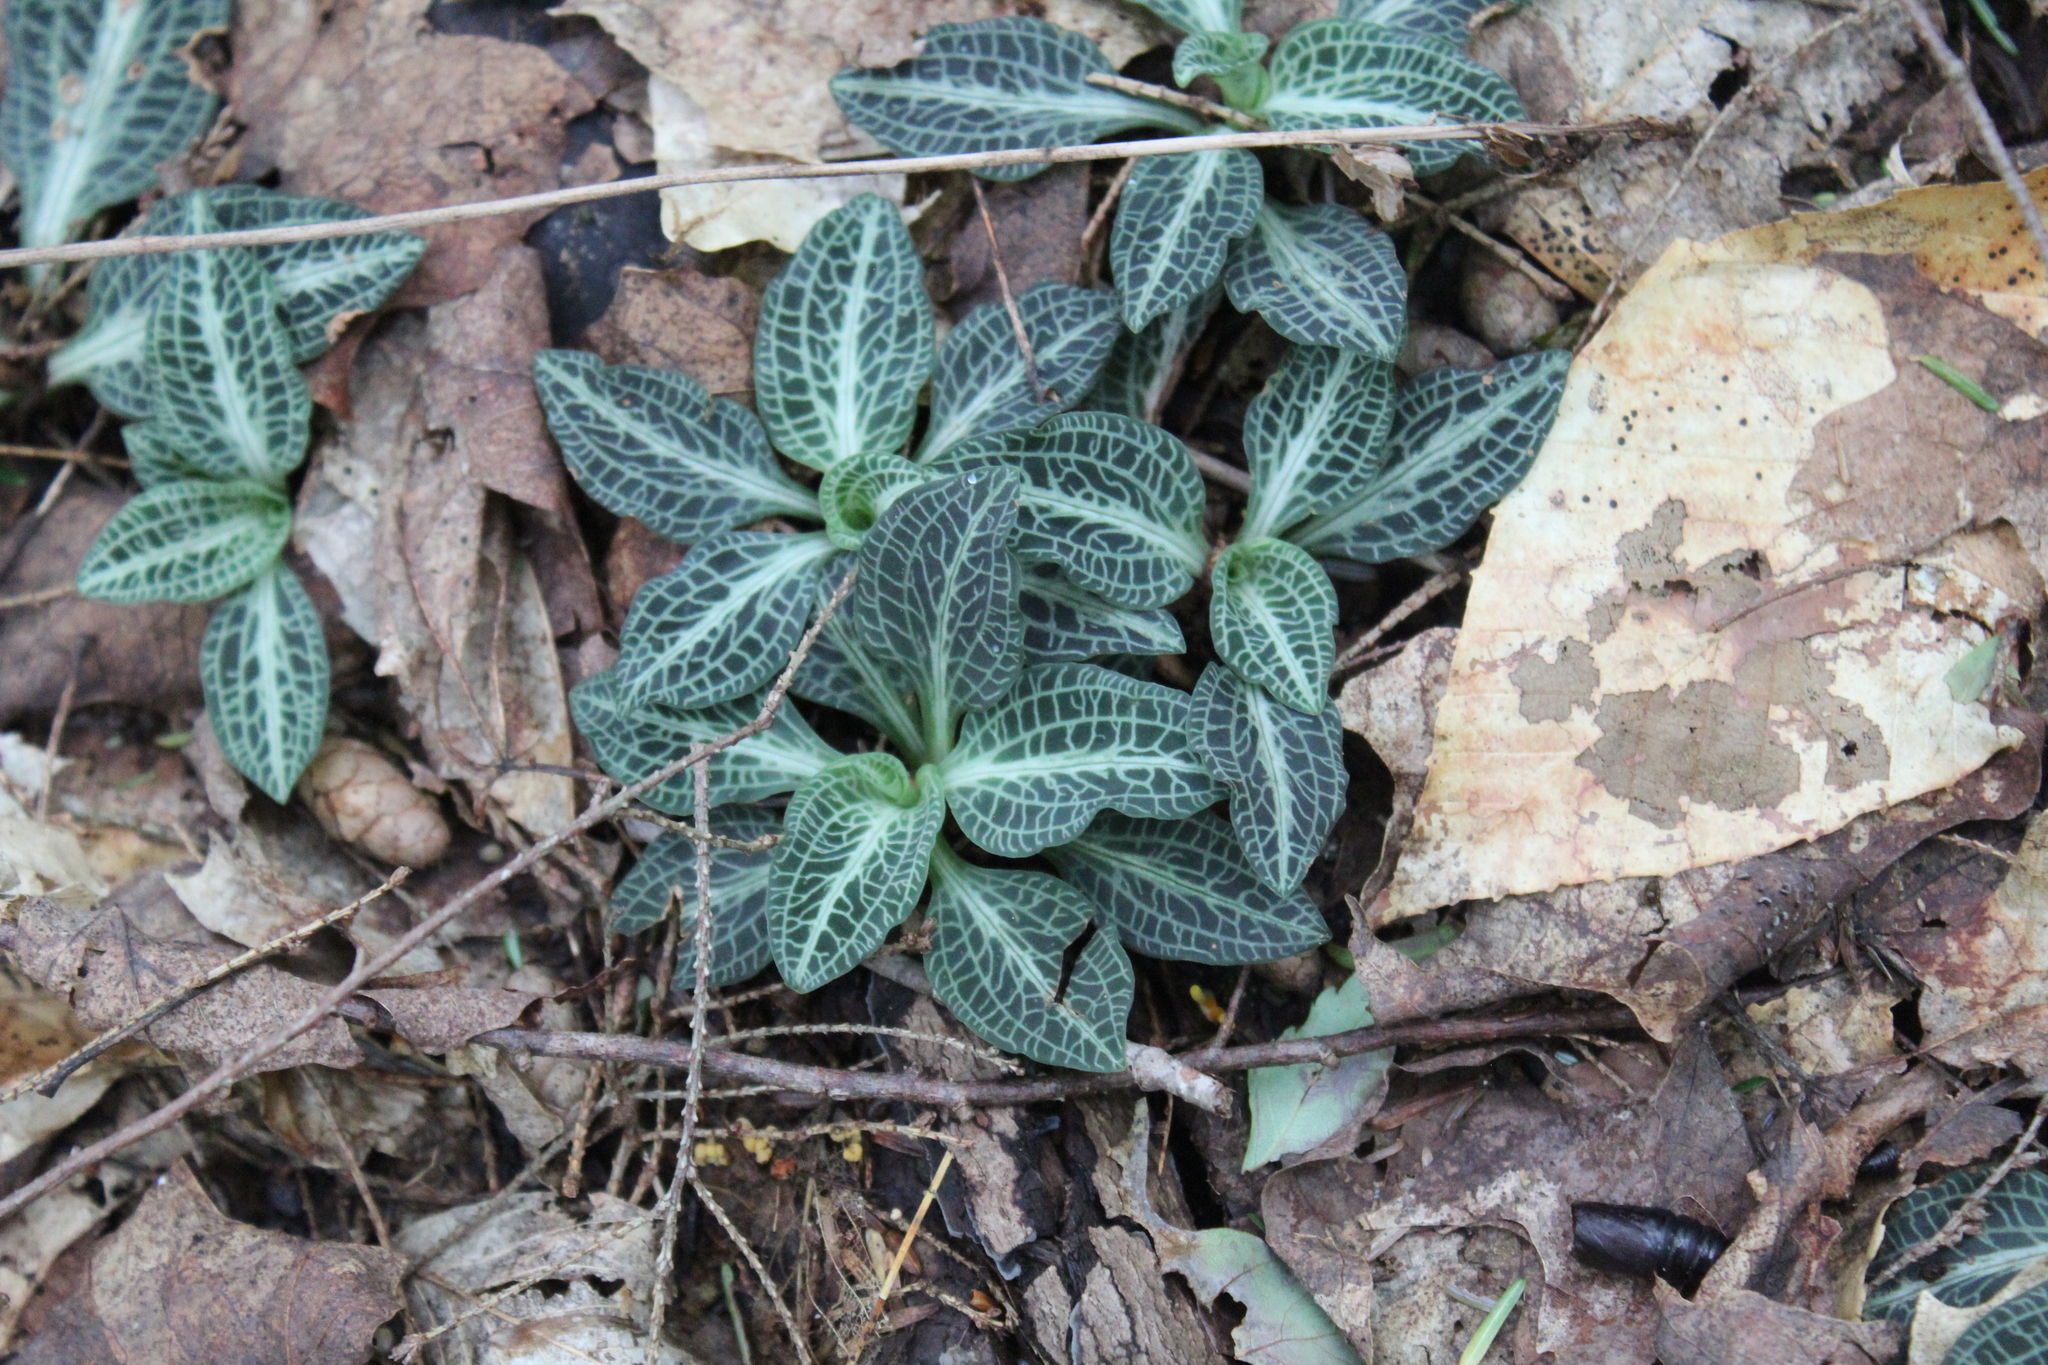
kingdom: Plantae
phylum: Tracheophyta
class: Liliopsida
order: Asparagales
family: Orchidaceae
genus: Goodyera
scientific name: Goodyera pubescens
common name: Downy rattlesnake-plantain
